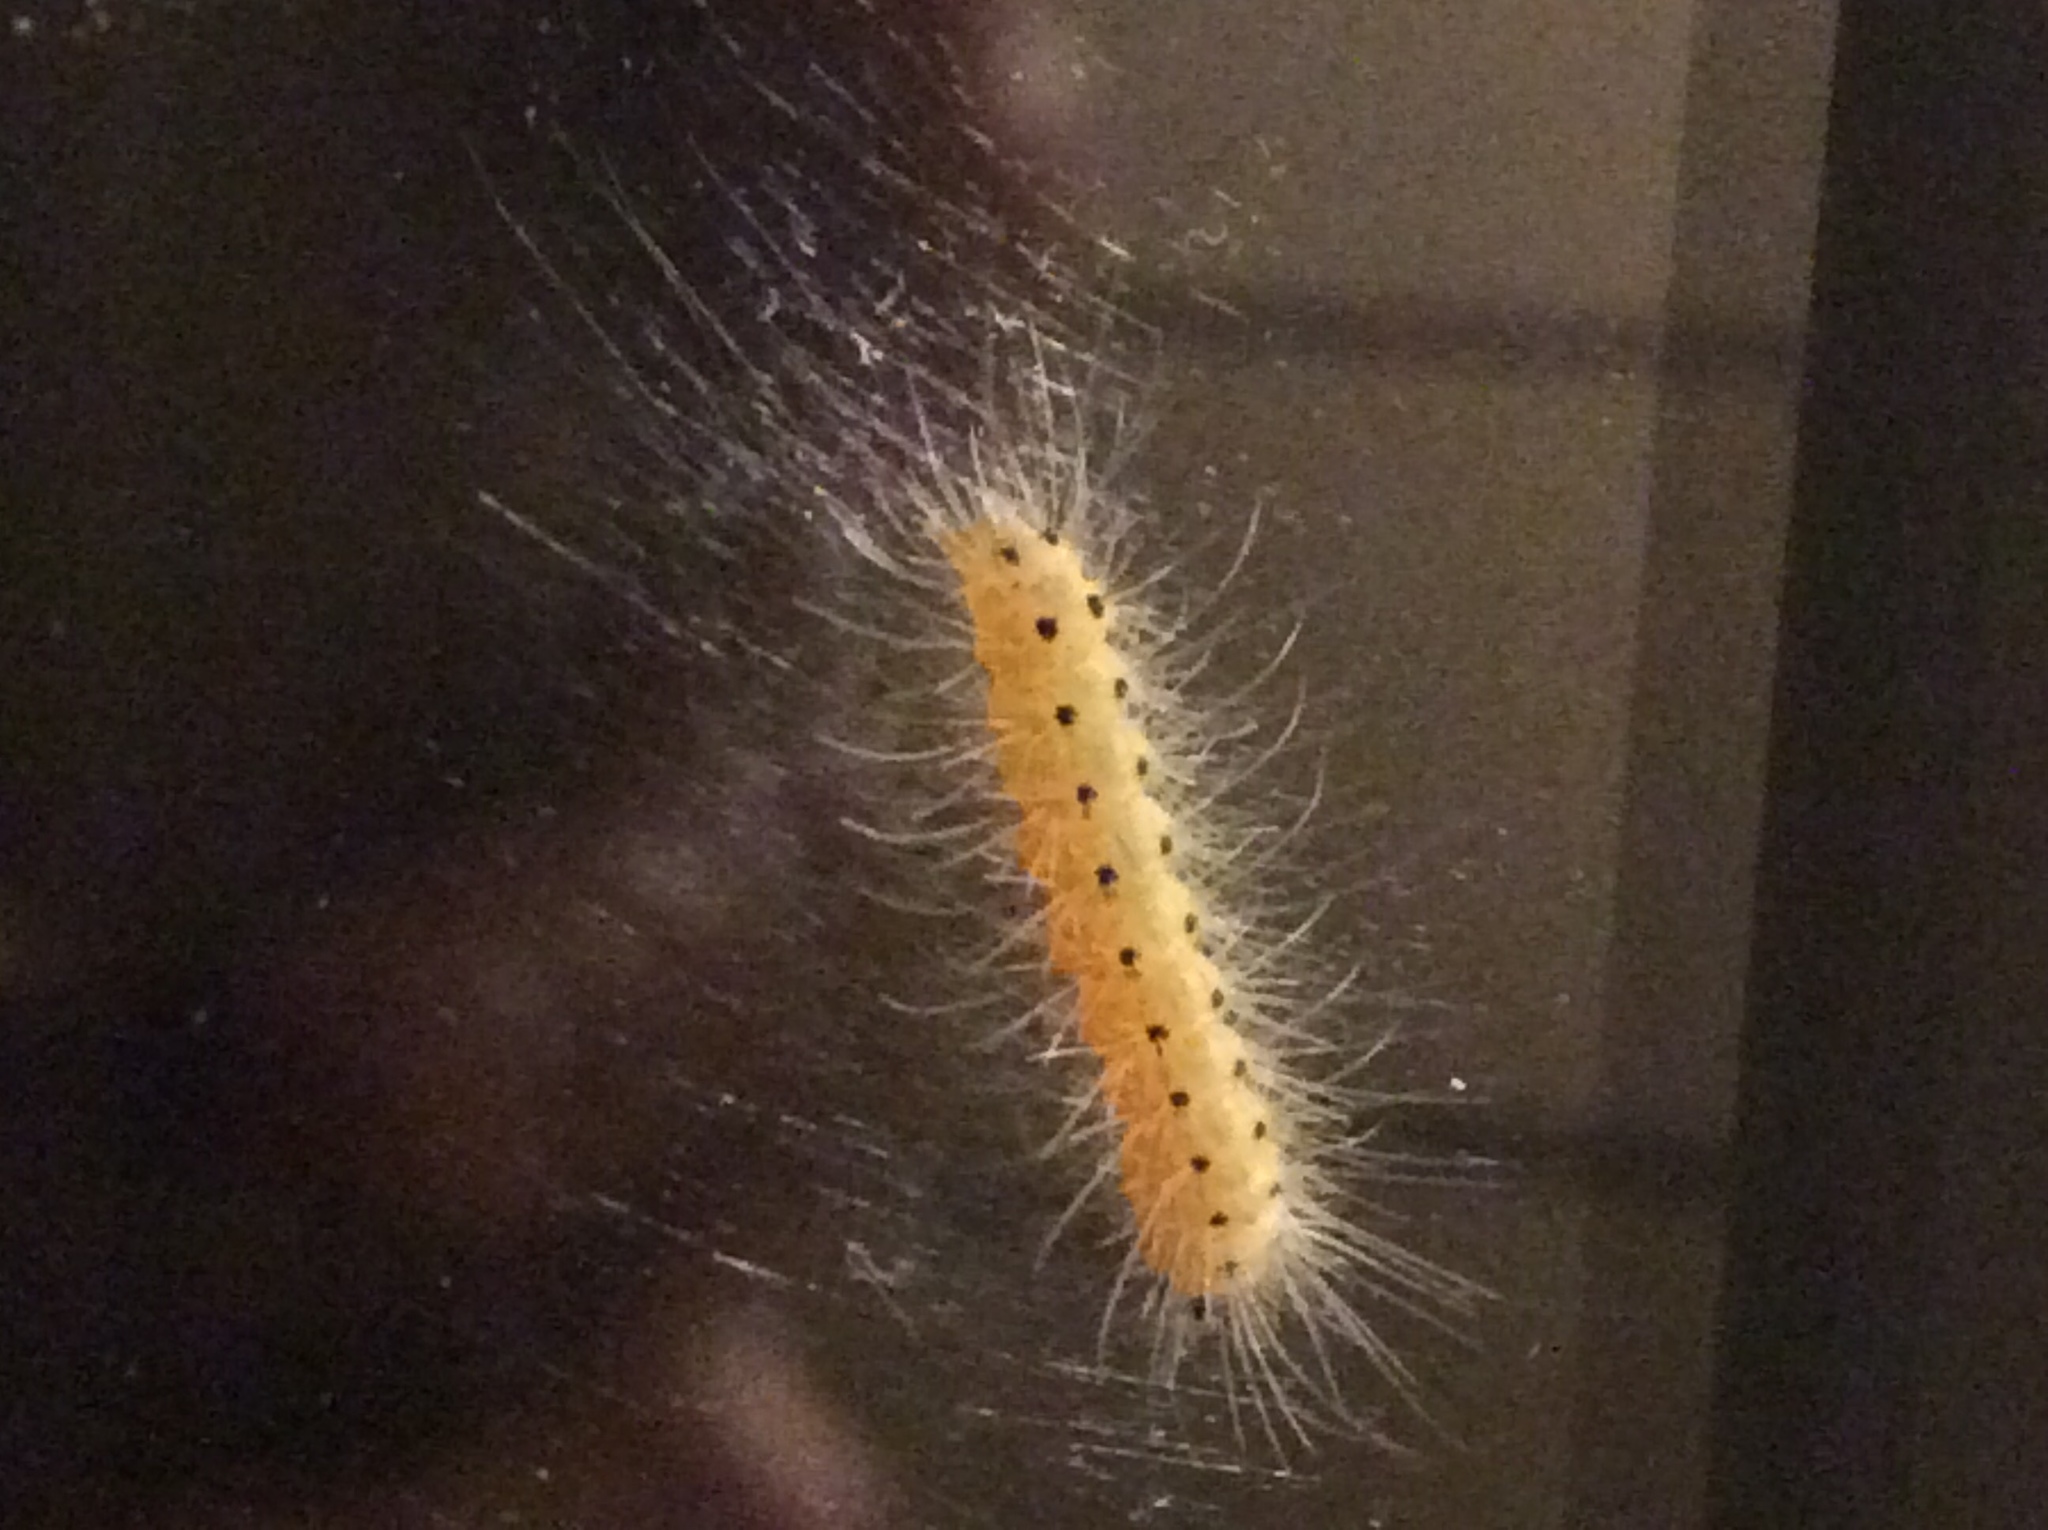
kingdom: Animalia
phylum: Arthropoda
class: Insecta
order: Lepidoptera
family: Erebidae
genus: Hyphantria
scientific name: Hyphantria cunea
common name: American white moth
